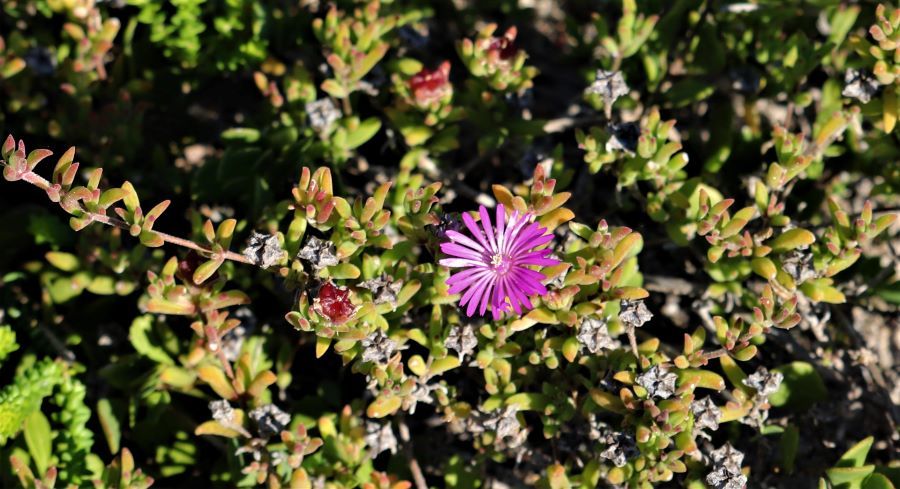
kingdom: Plantae
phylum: Tracheophyta
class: Magnoliopsida
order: Caryophyllales
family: Aizoaceae
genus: Drosanthemum
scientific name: Drosanthemum calcareum
